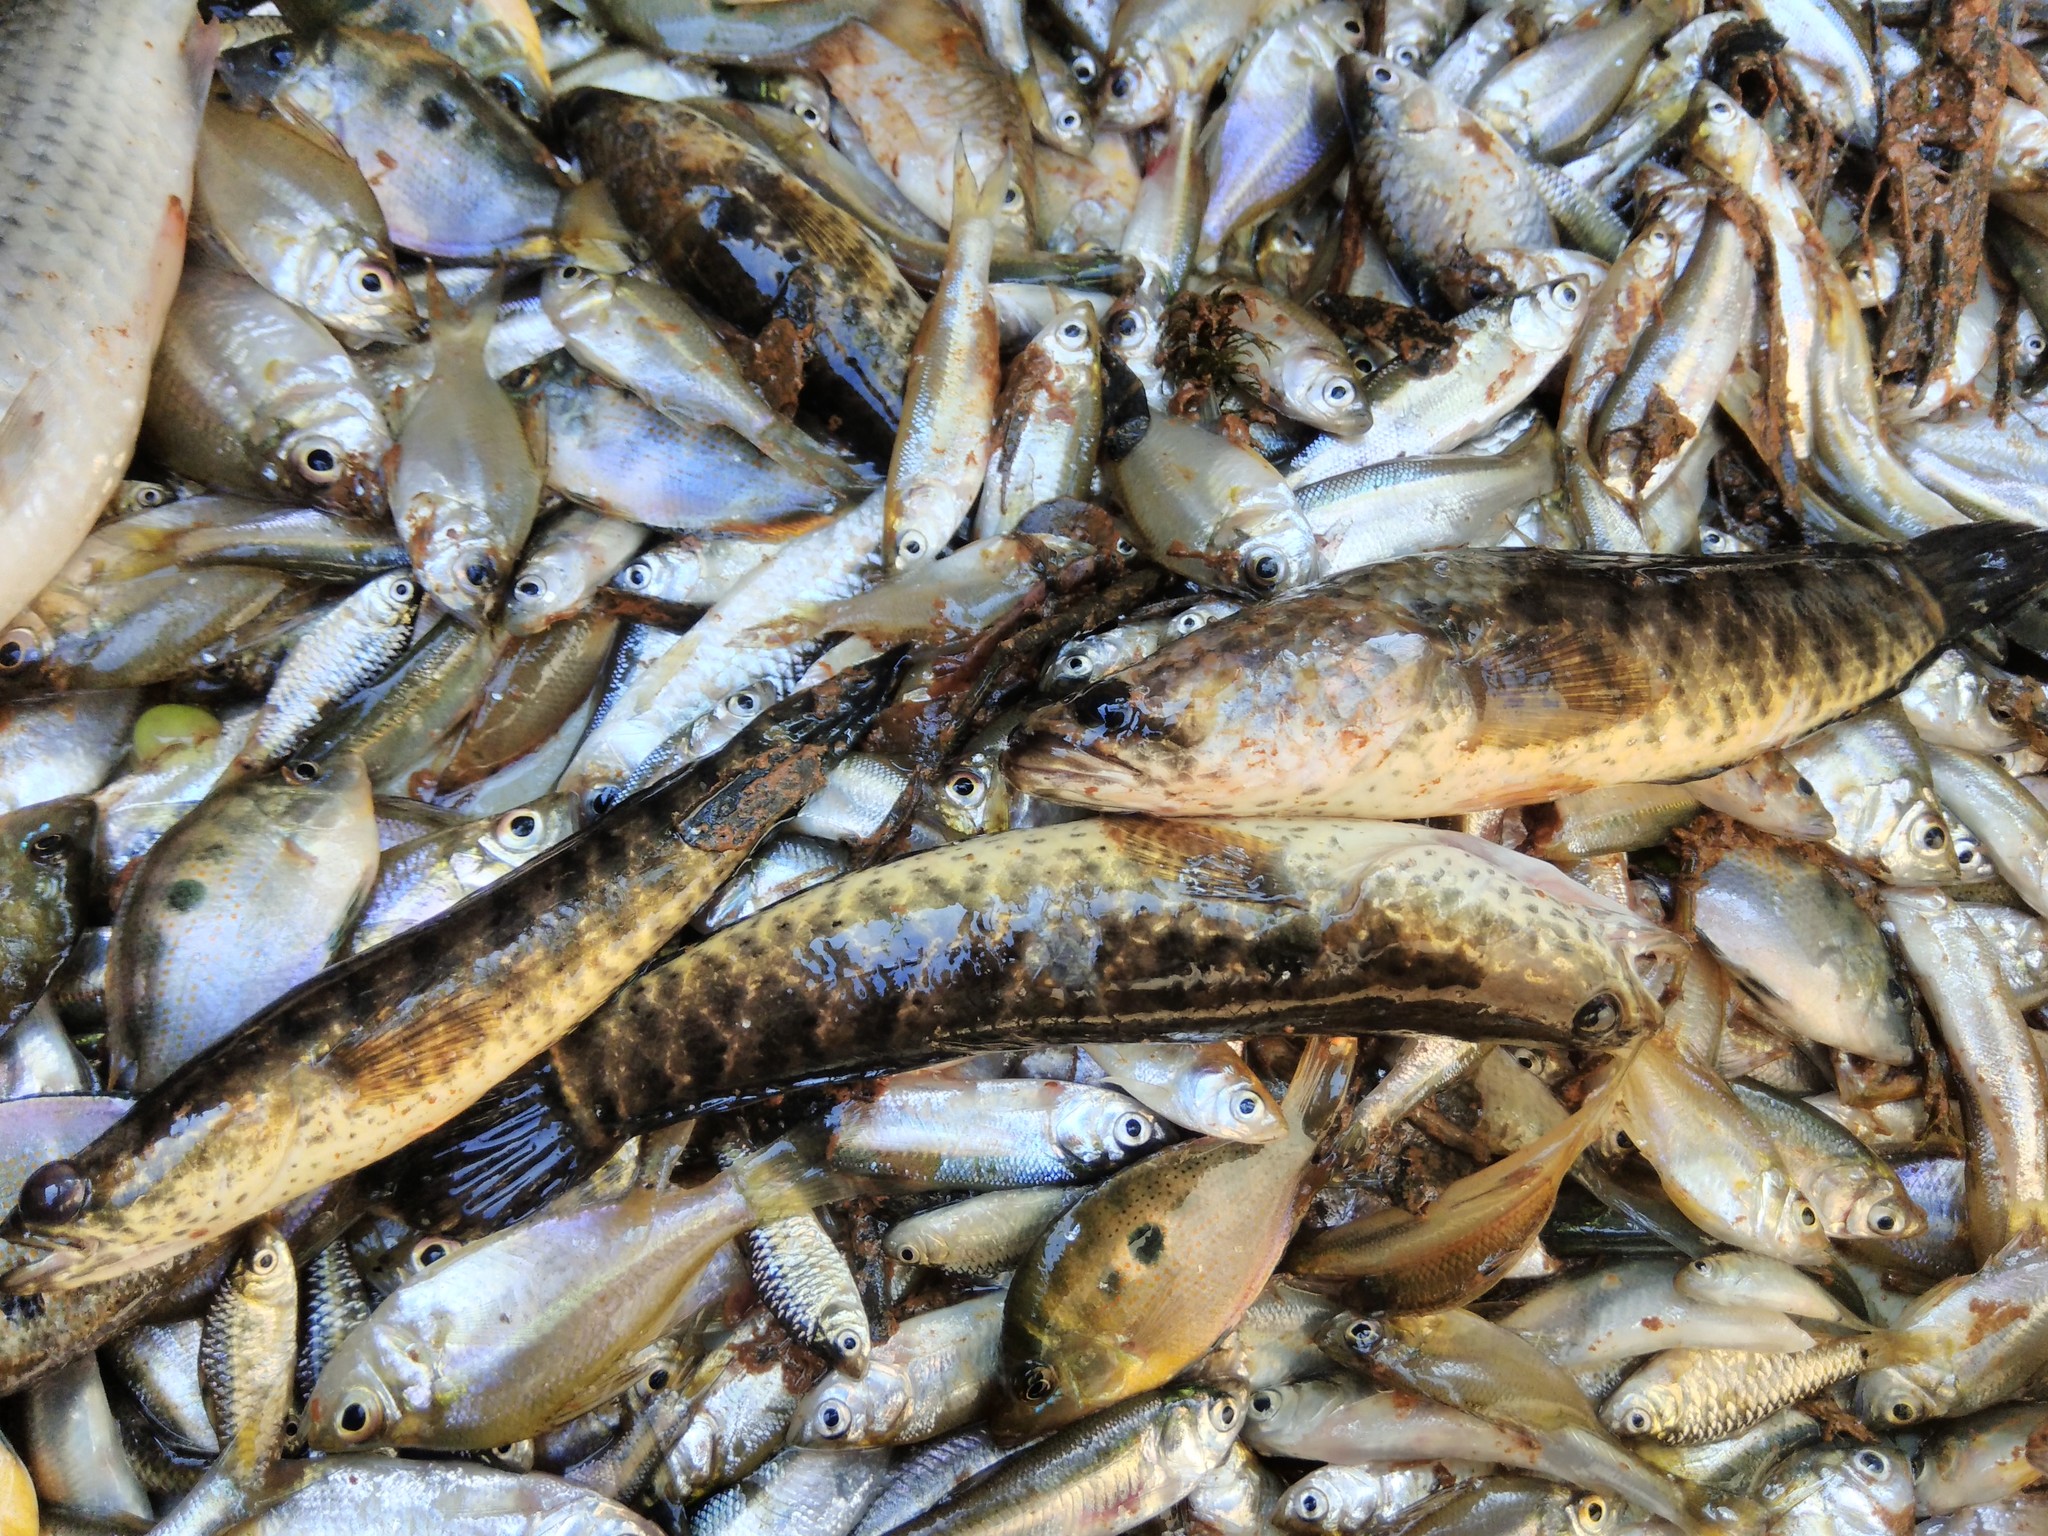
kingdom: Animalia
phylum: Chordata
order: Perciformes
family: Channidae
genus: Channa
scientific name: Channa punctata
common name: Spotted snakehead
